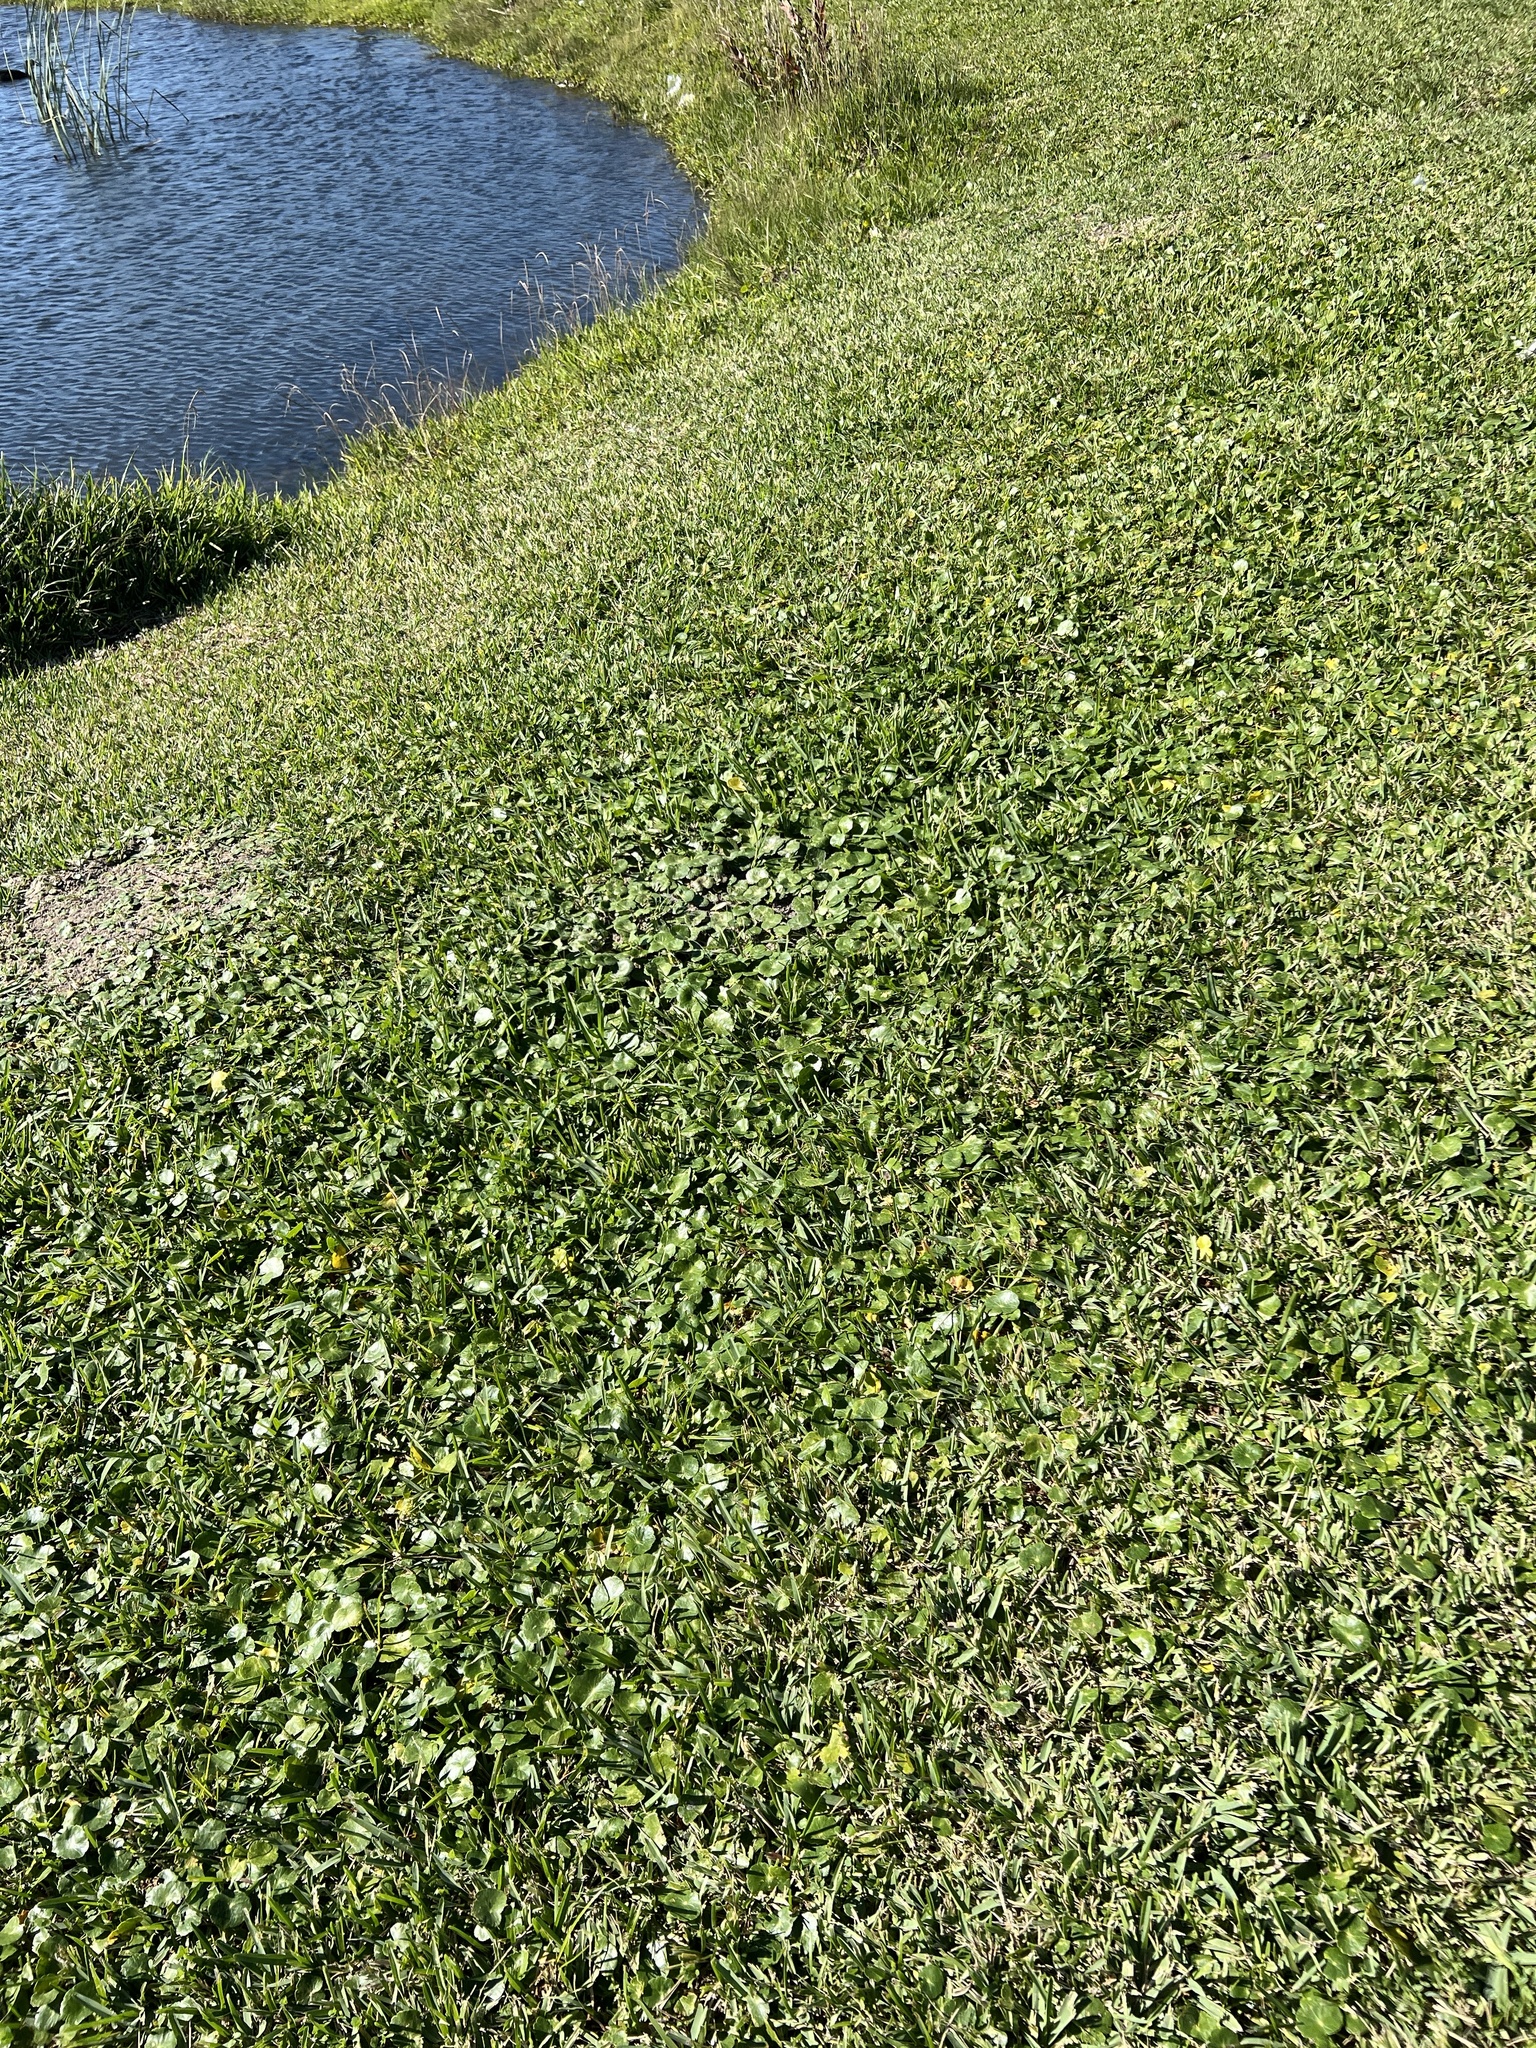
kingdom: Plantae
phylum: Tracheophyta
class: Magnoliopsida
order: Apiales
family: Araliaceae
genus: Hydrocotyle
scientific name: Hydrocotyle umbellata
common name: Water pennywort
